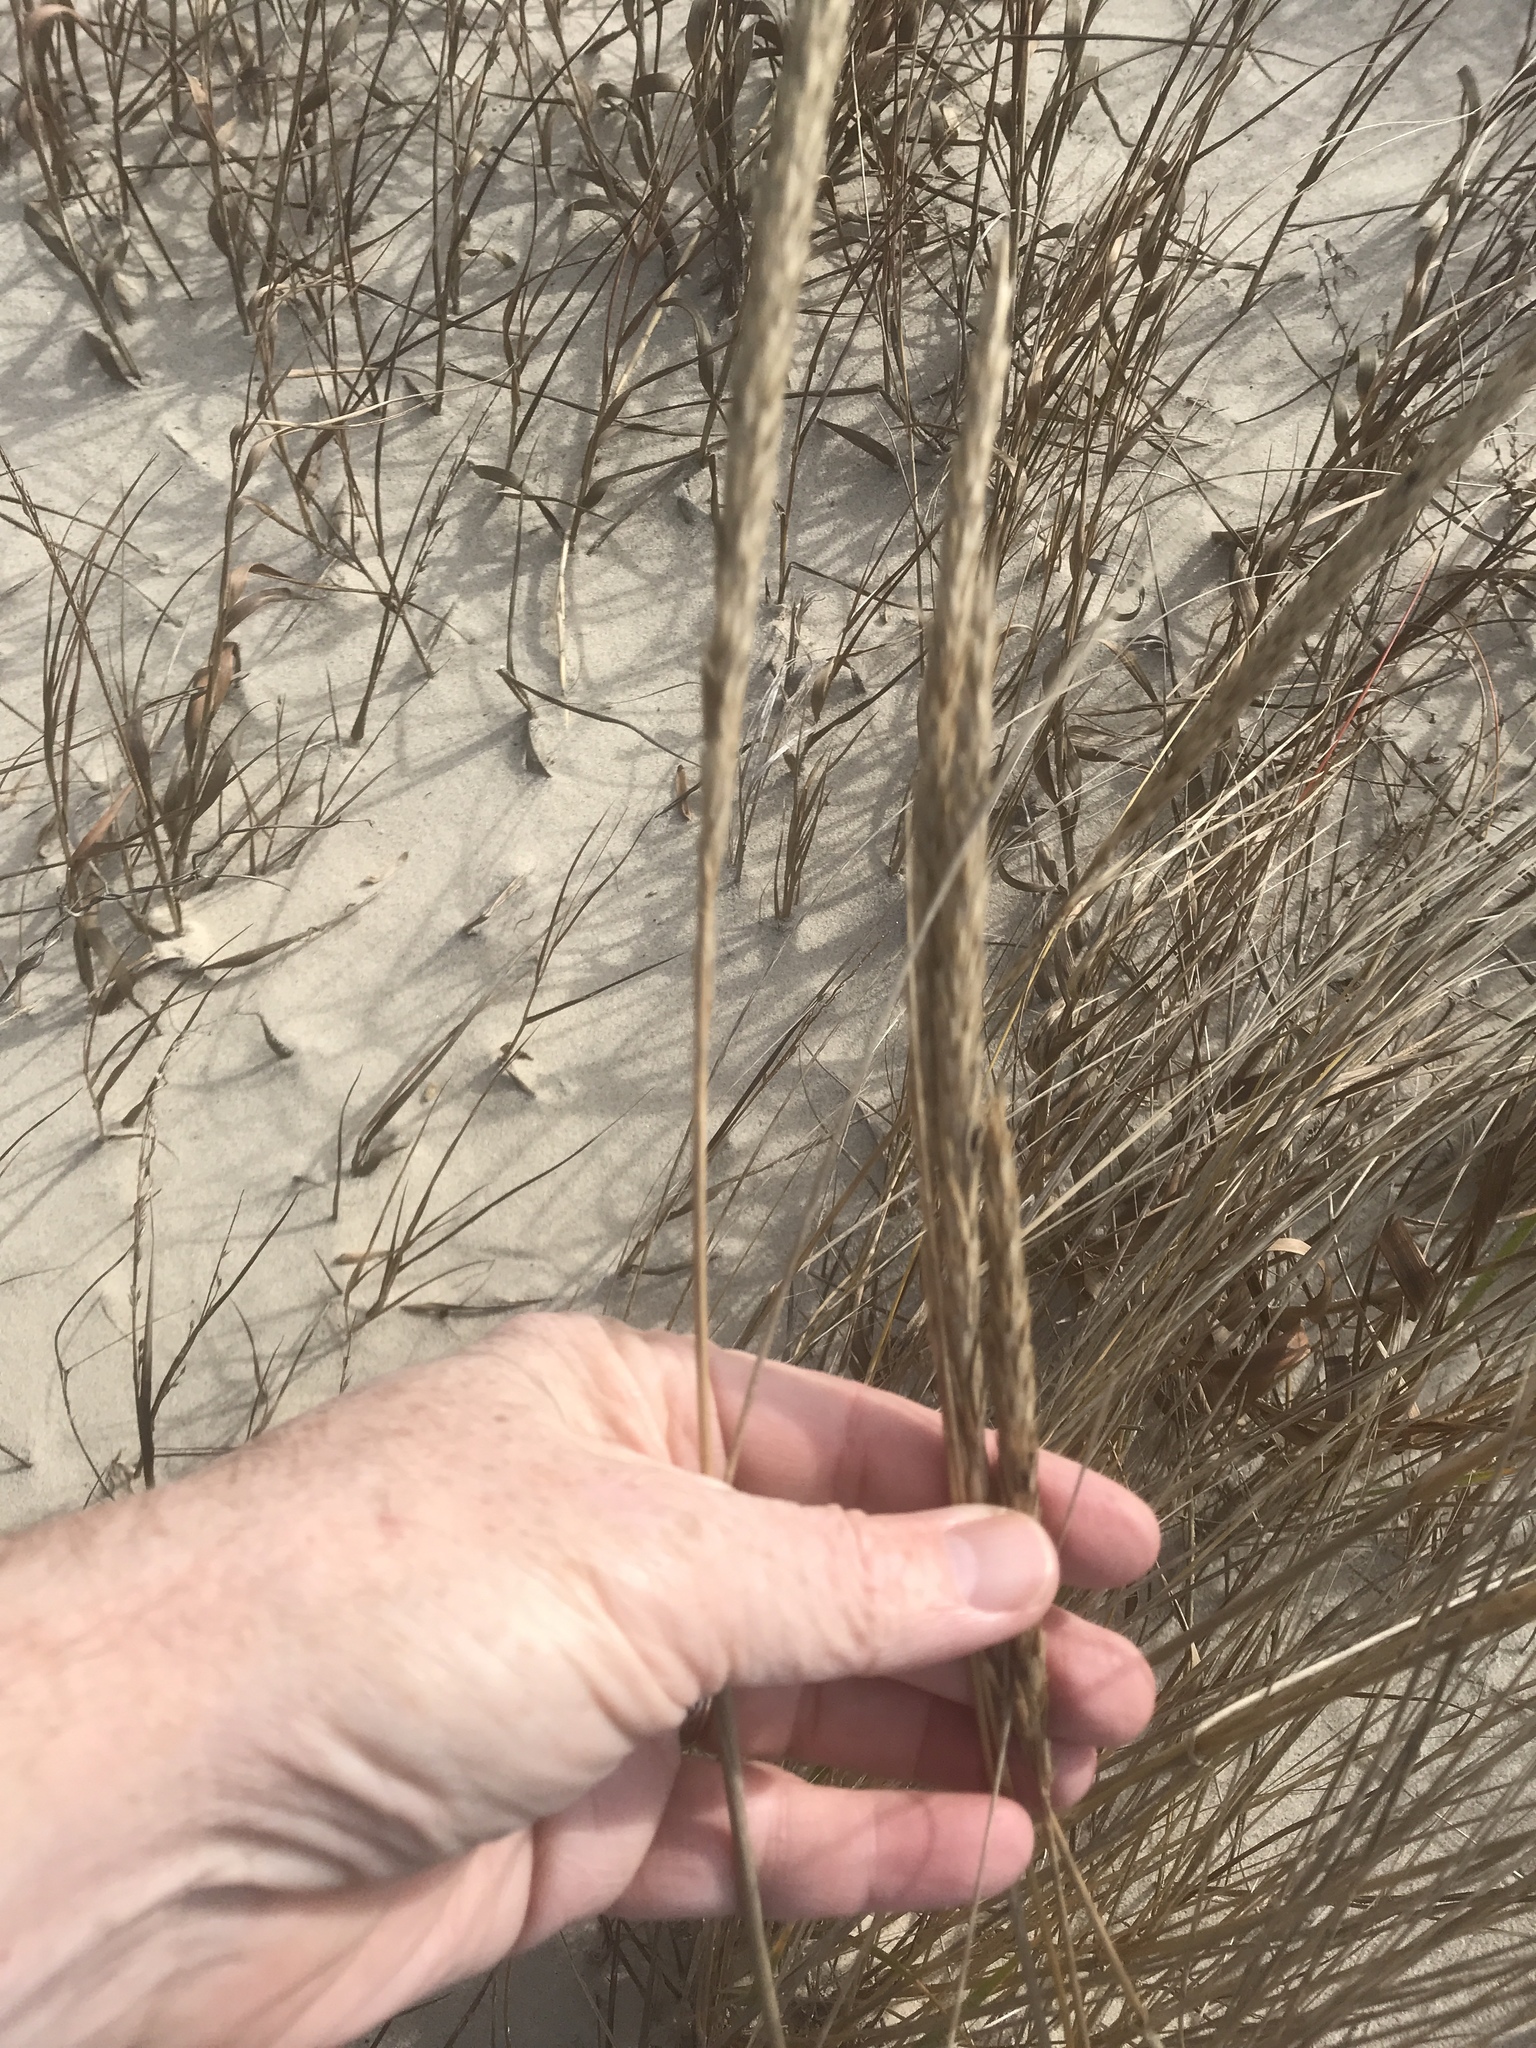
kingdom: Plantae
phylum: Tracheophyta
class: Liliopsida
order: Poales
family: Poaceae
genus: Calamagrostis
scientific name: Calamagrostis breviligulata
